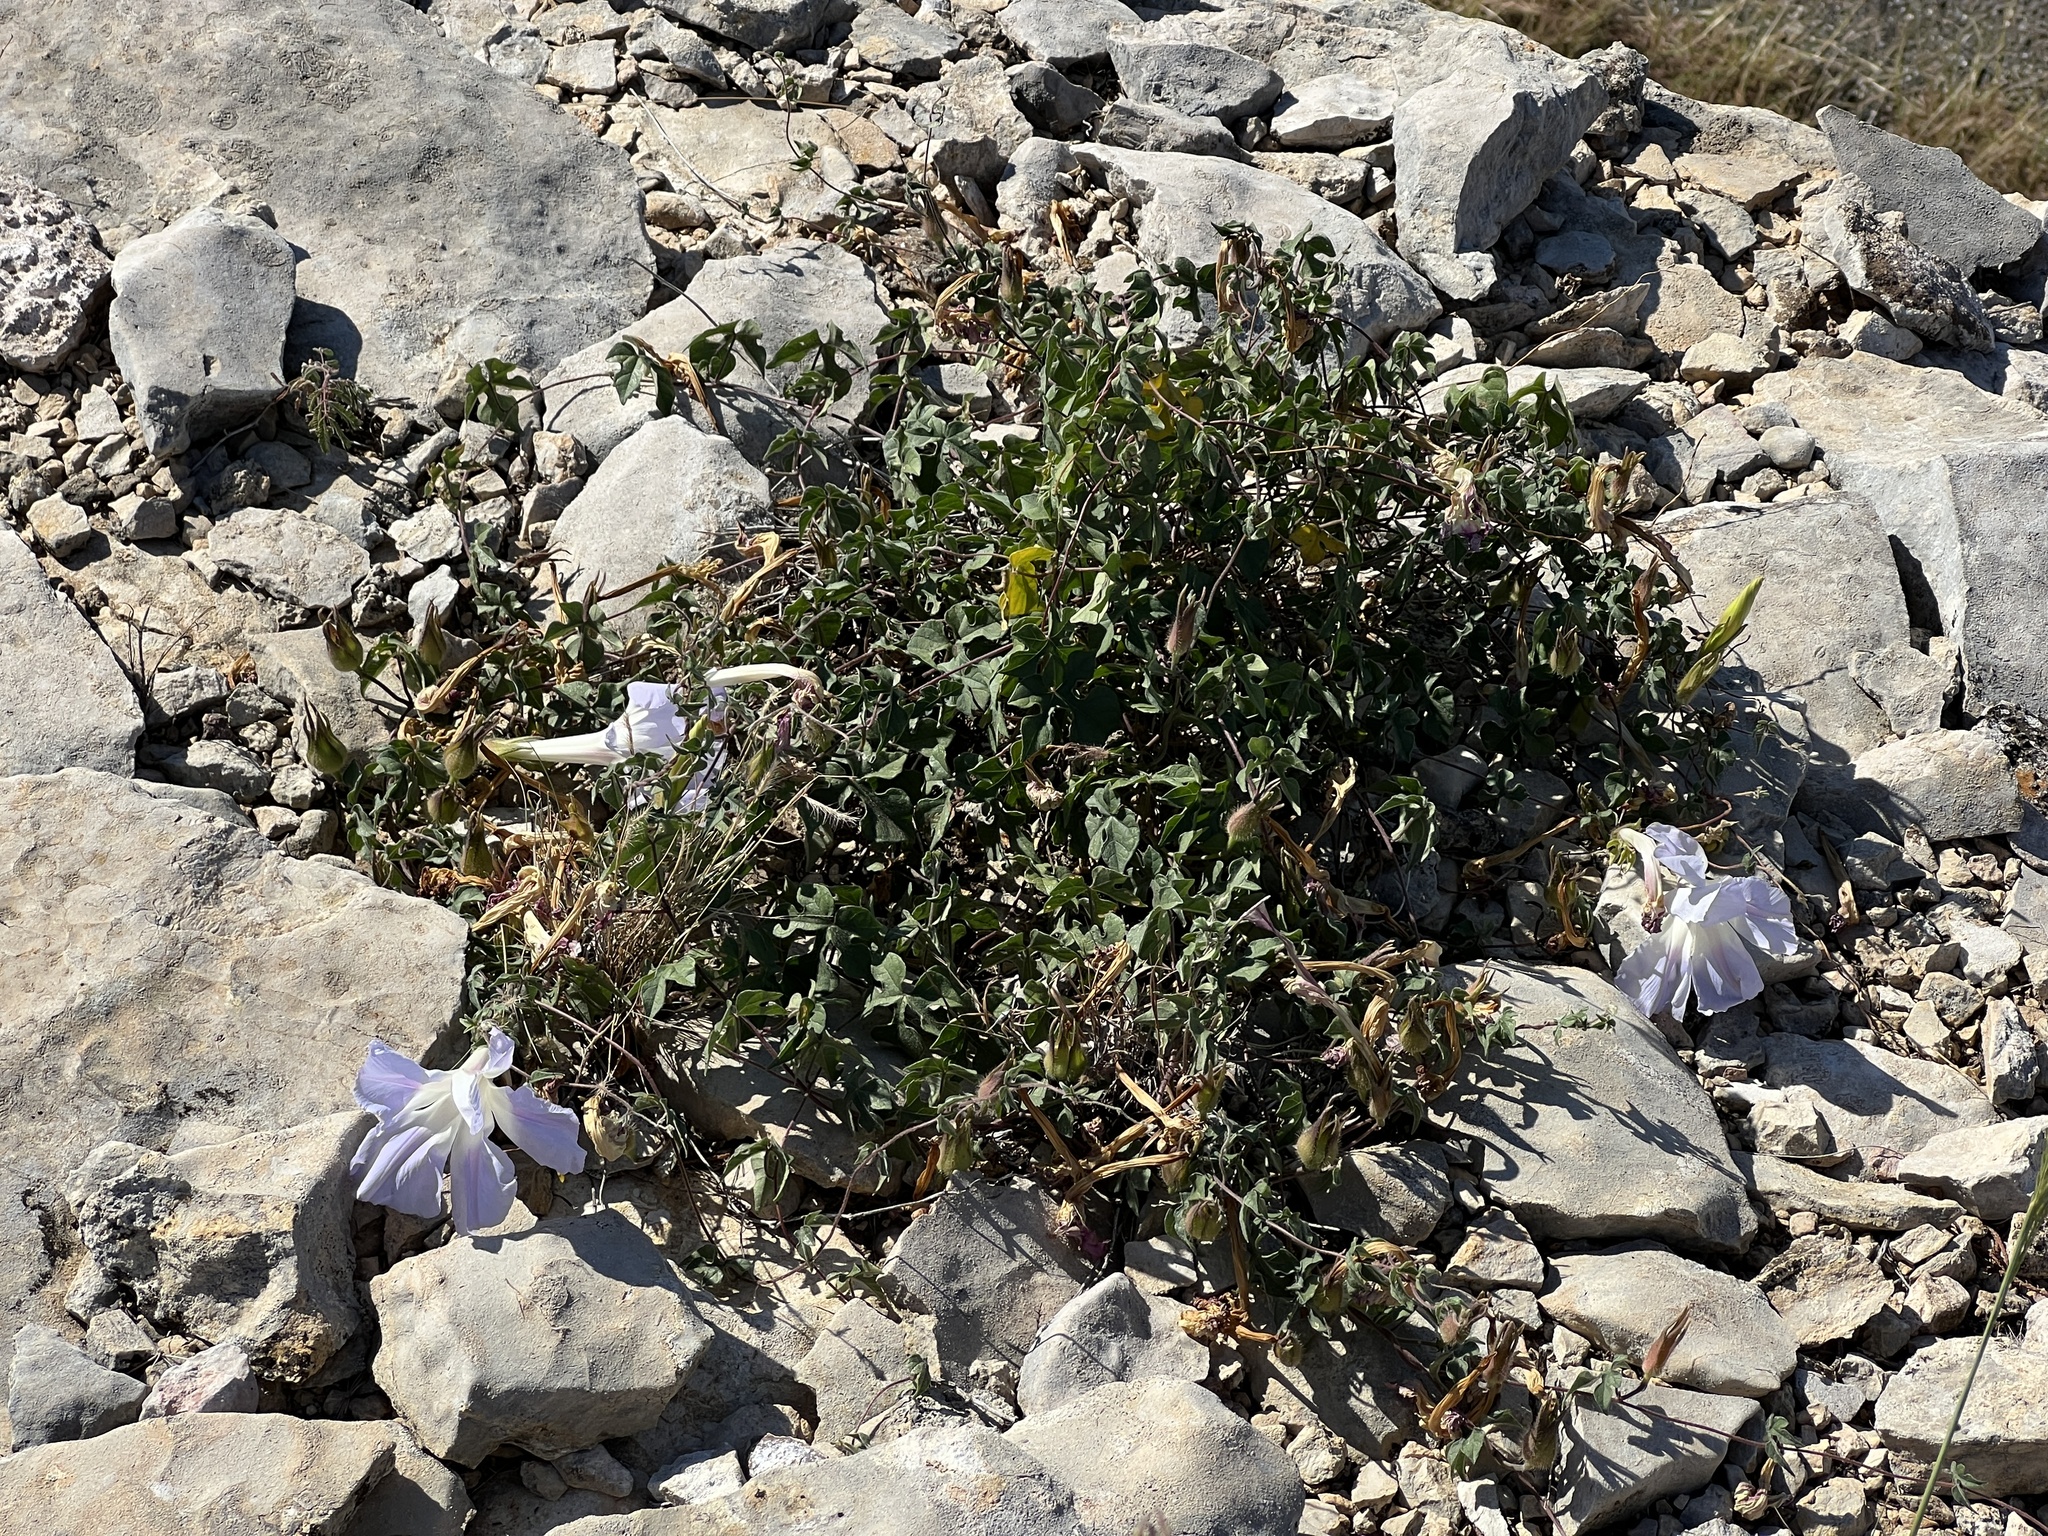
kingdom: Plantae
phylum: Tracheophyta
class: Magnoliopsida
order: Solanales
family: Convolvulaceae
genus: Ipomoea
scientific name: Ipomoea lindheimeri
